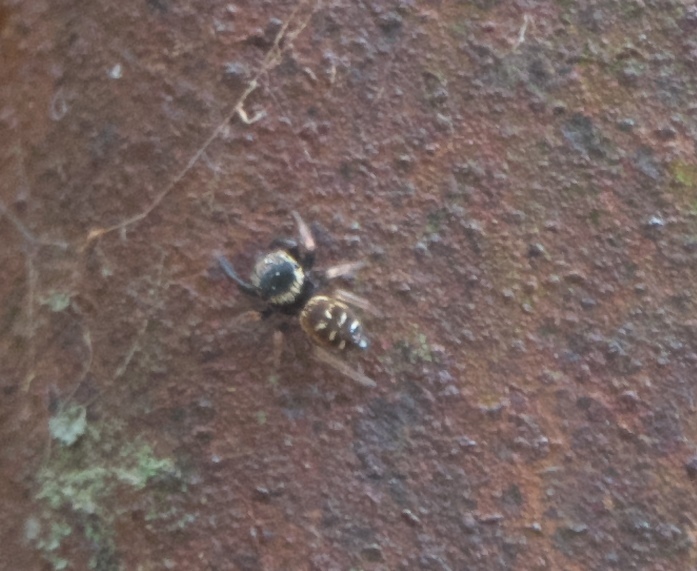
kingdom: Animalia
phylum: Arthropoda
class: Arachnida
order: Araneae
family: Salticidae
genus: Paraphidippus
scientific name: Paraphidippus aurantius
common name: Jumping spiders
